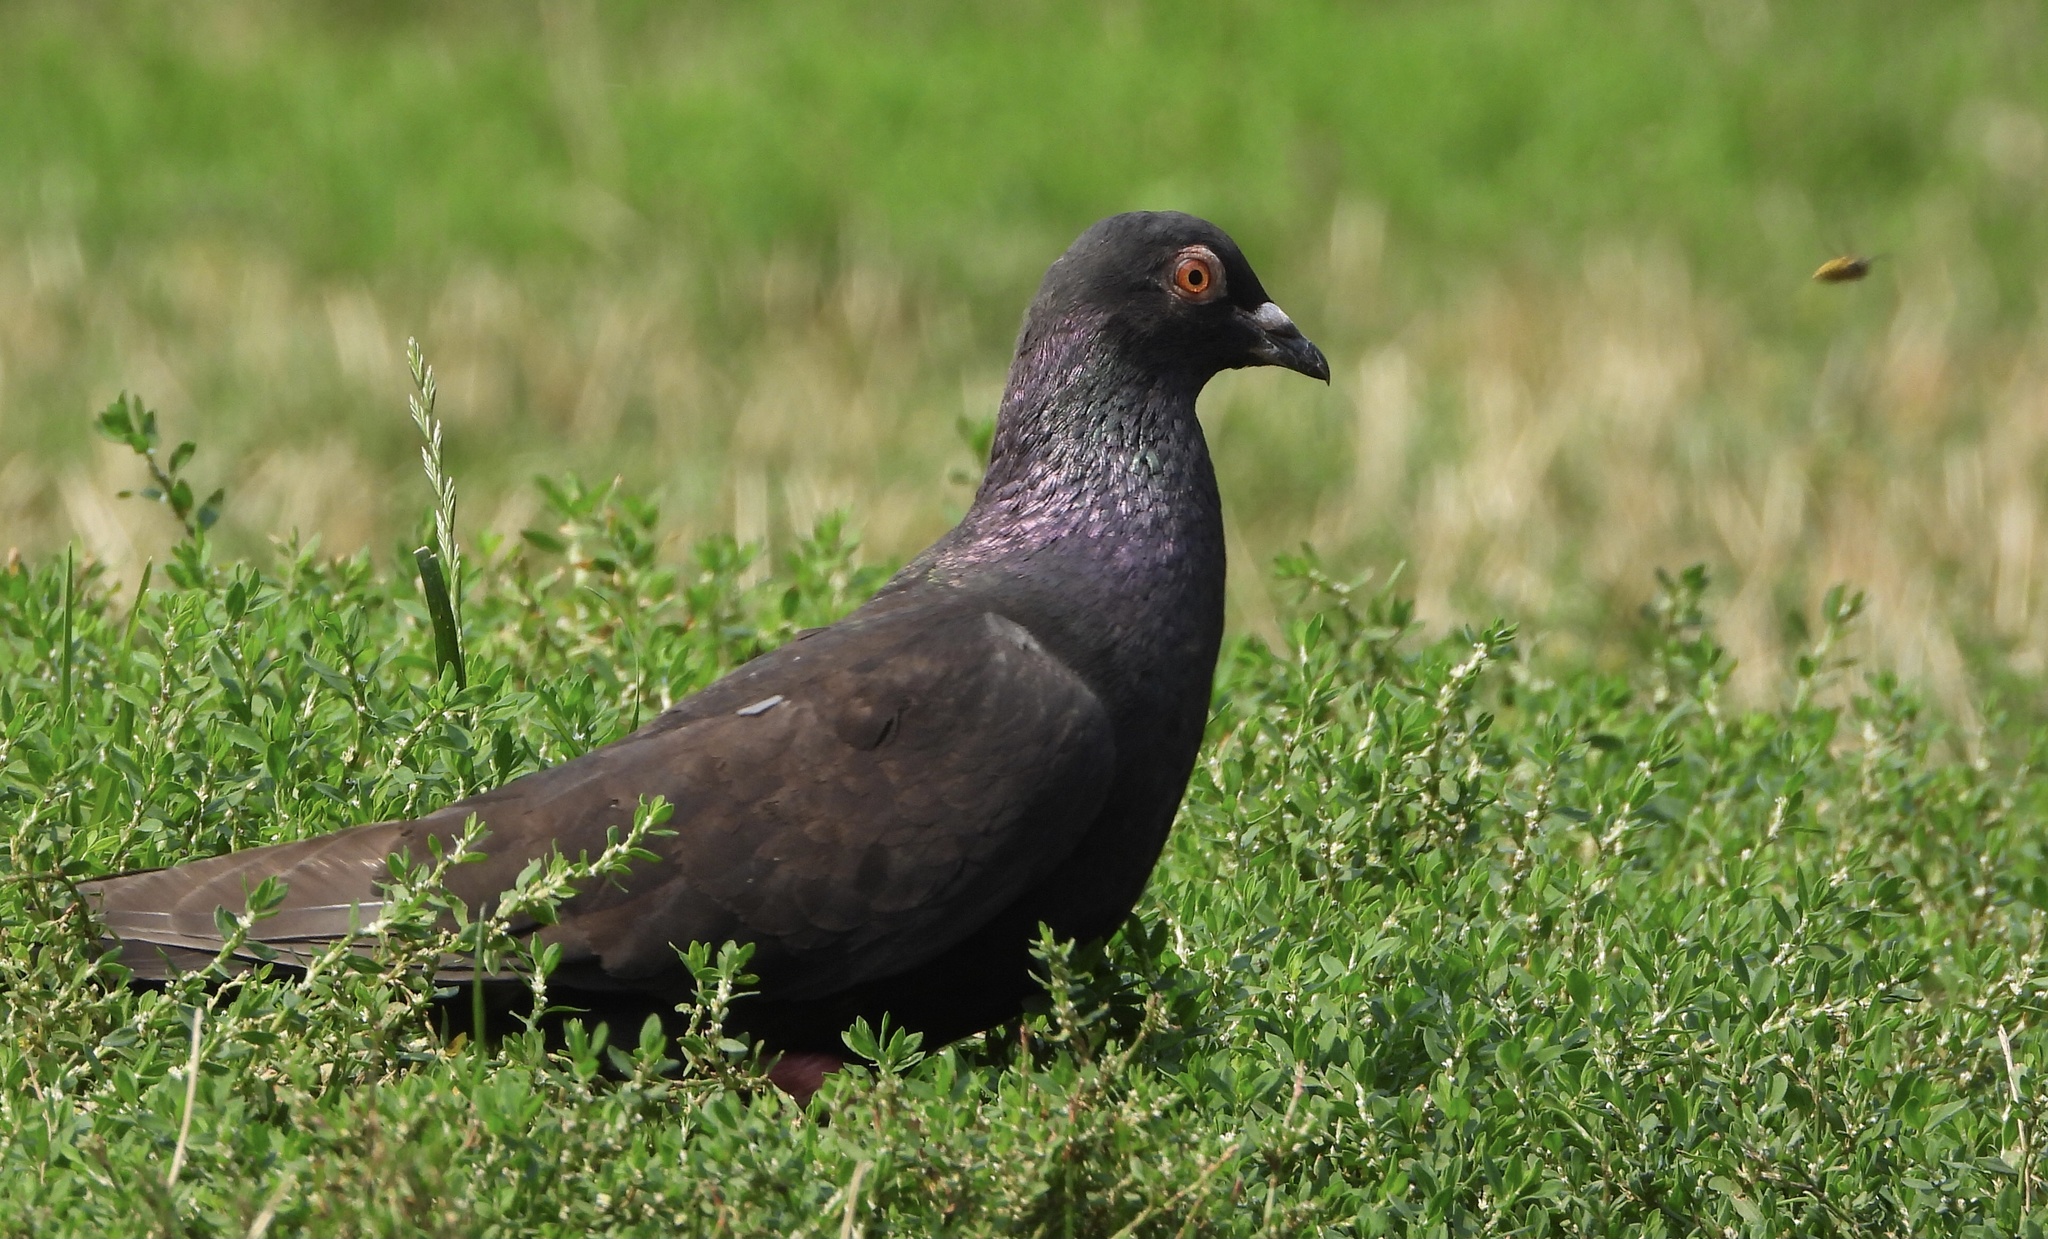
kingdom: Animalia
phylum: Chordata
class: Aves
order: Columbiformes
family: Columbidae
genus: Columba
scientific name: Columba livia
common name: Rock pigeon
